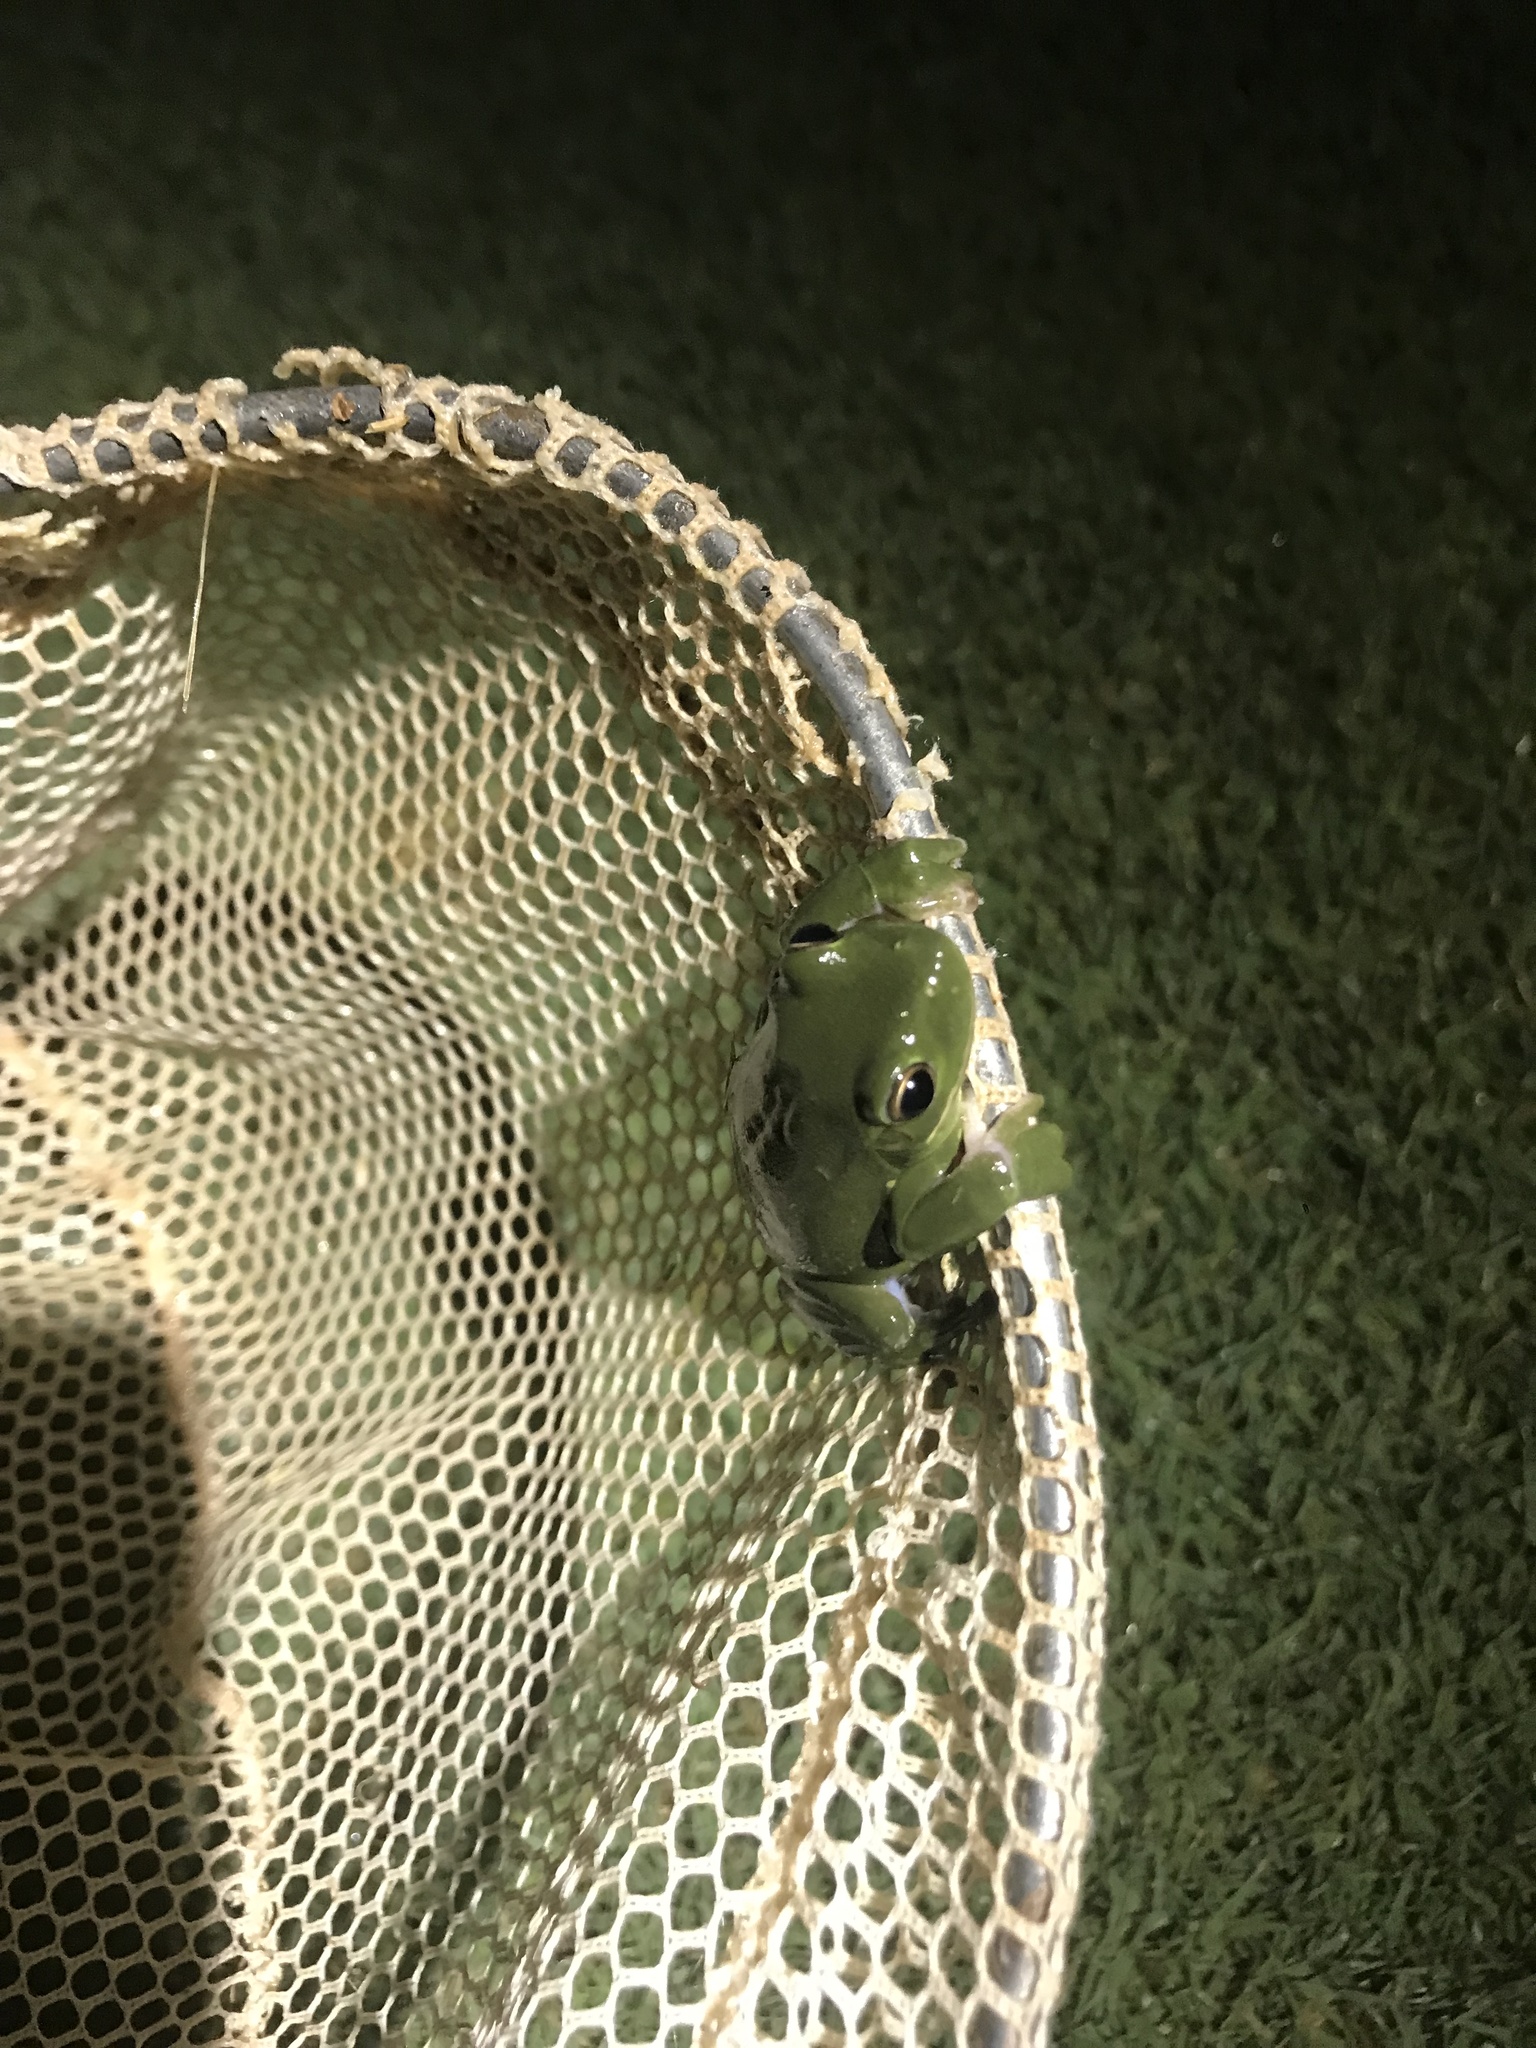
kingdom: Animalia
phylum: Chordata
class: Amphibia
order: Anura
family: Hylidae
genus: Dryophytes
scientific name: Dryophytes cinereus
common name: Green treefrog
